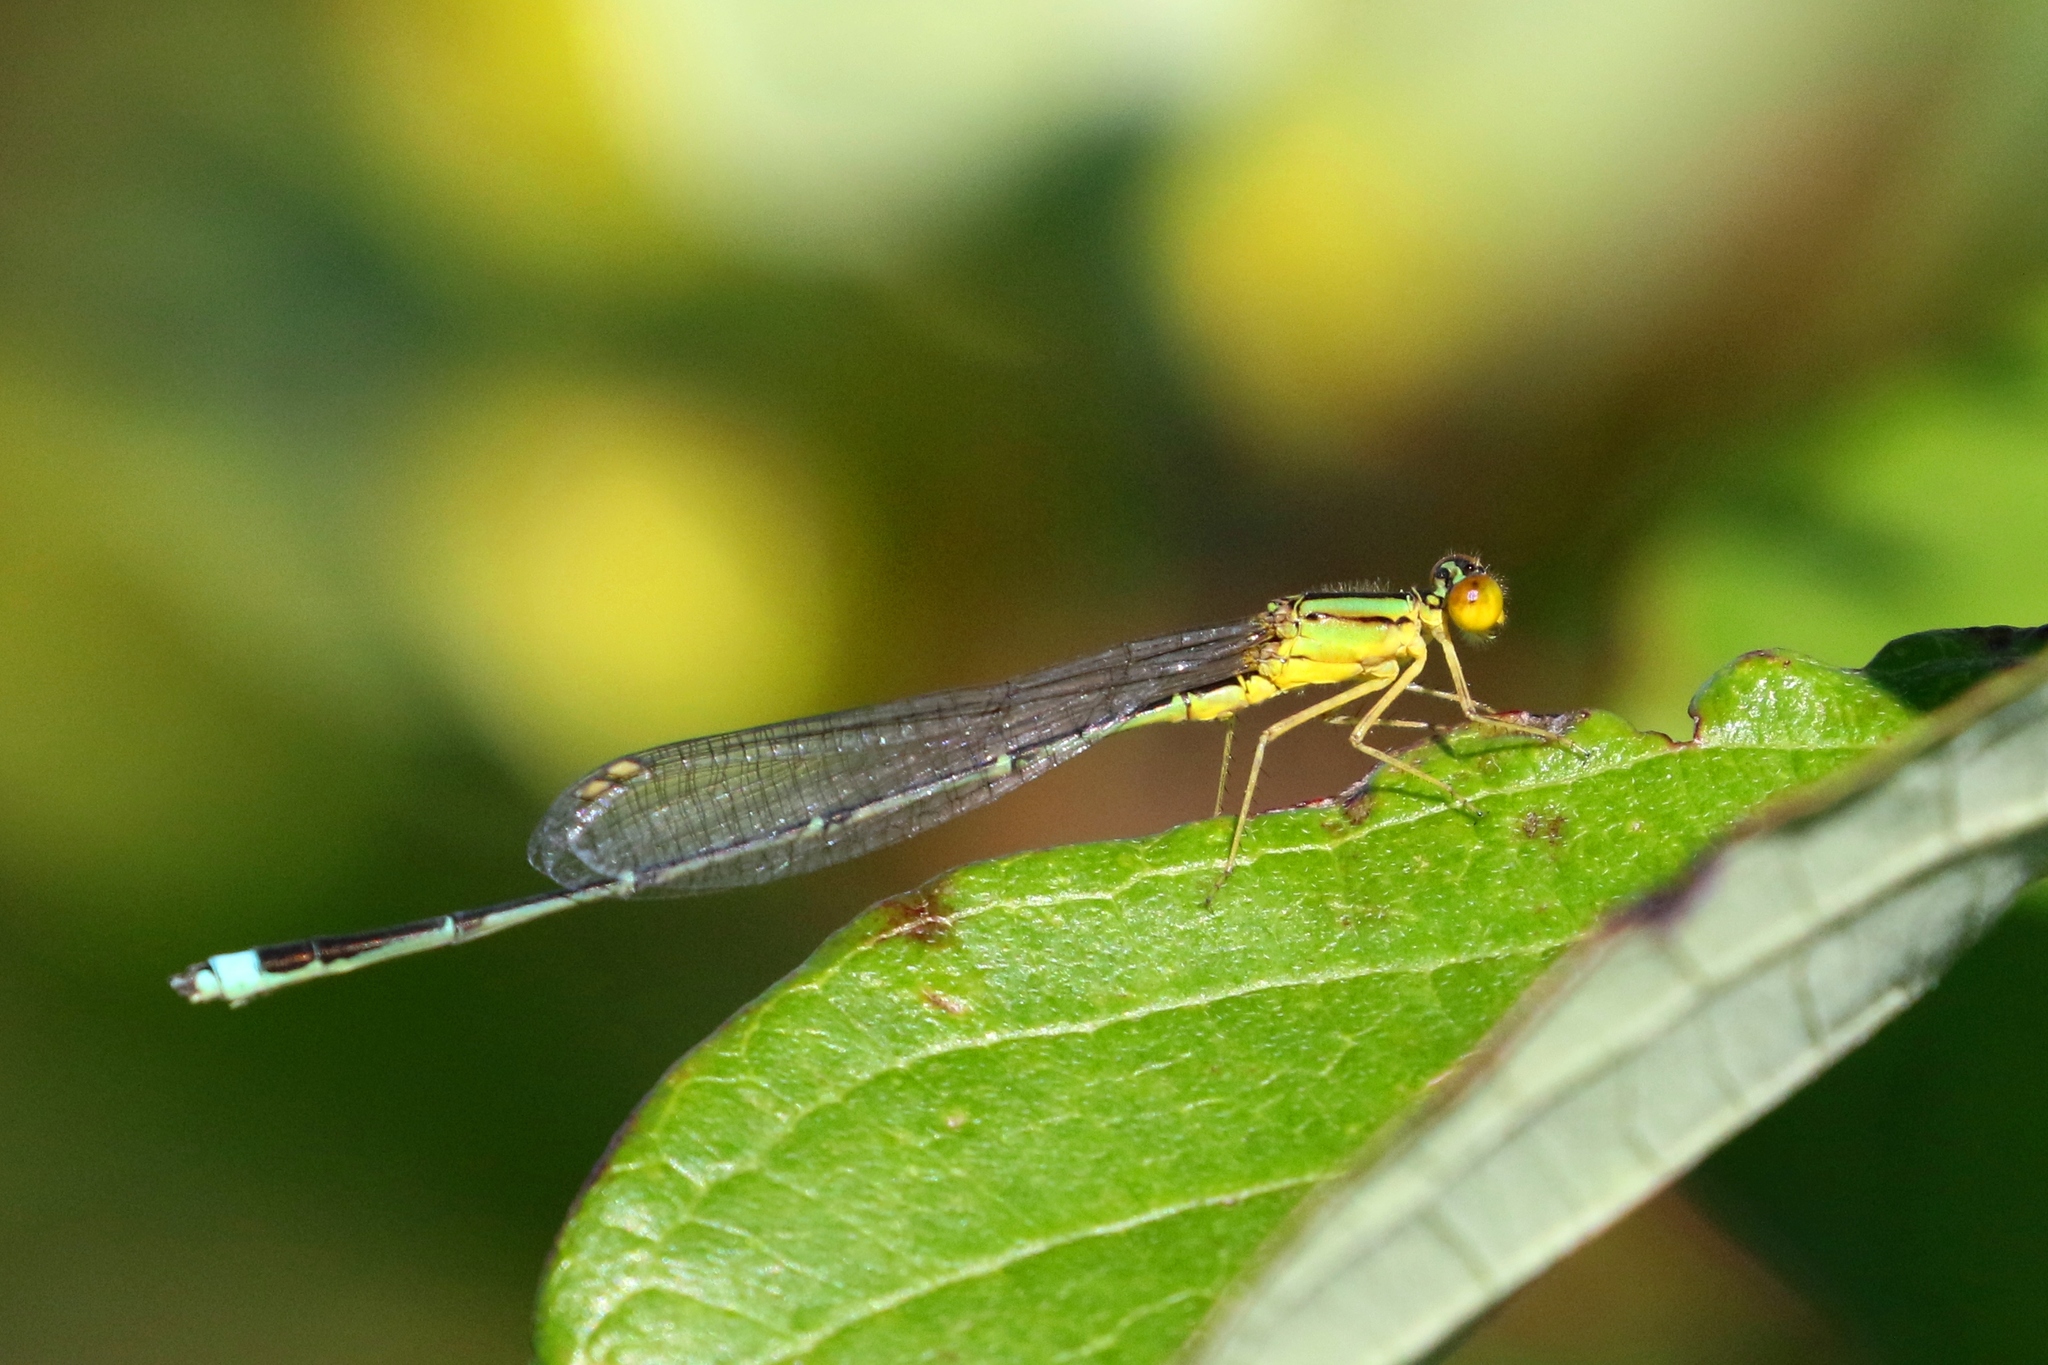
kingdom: Animalia
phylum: Arthropoda
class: Insecta
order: Odonata
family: Coenagrionidae
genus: Enallagma
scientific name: Enallagma vesperum
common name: Vesper bluet
